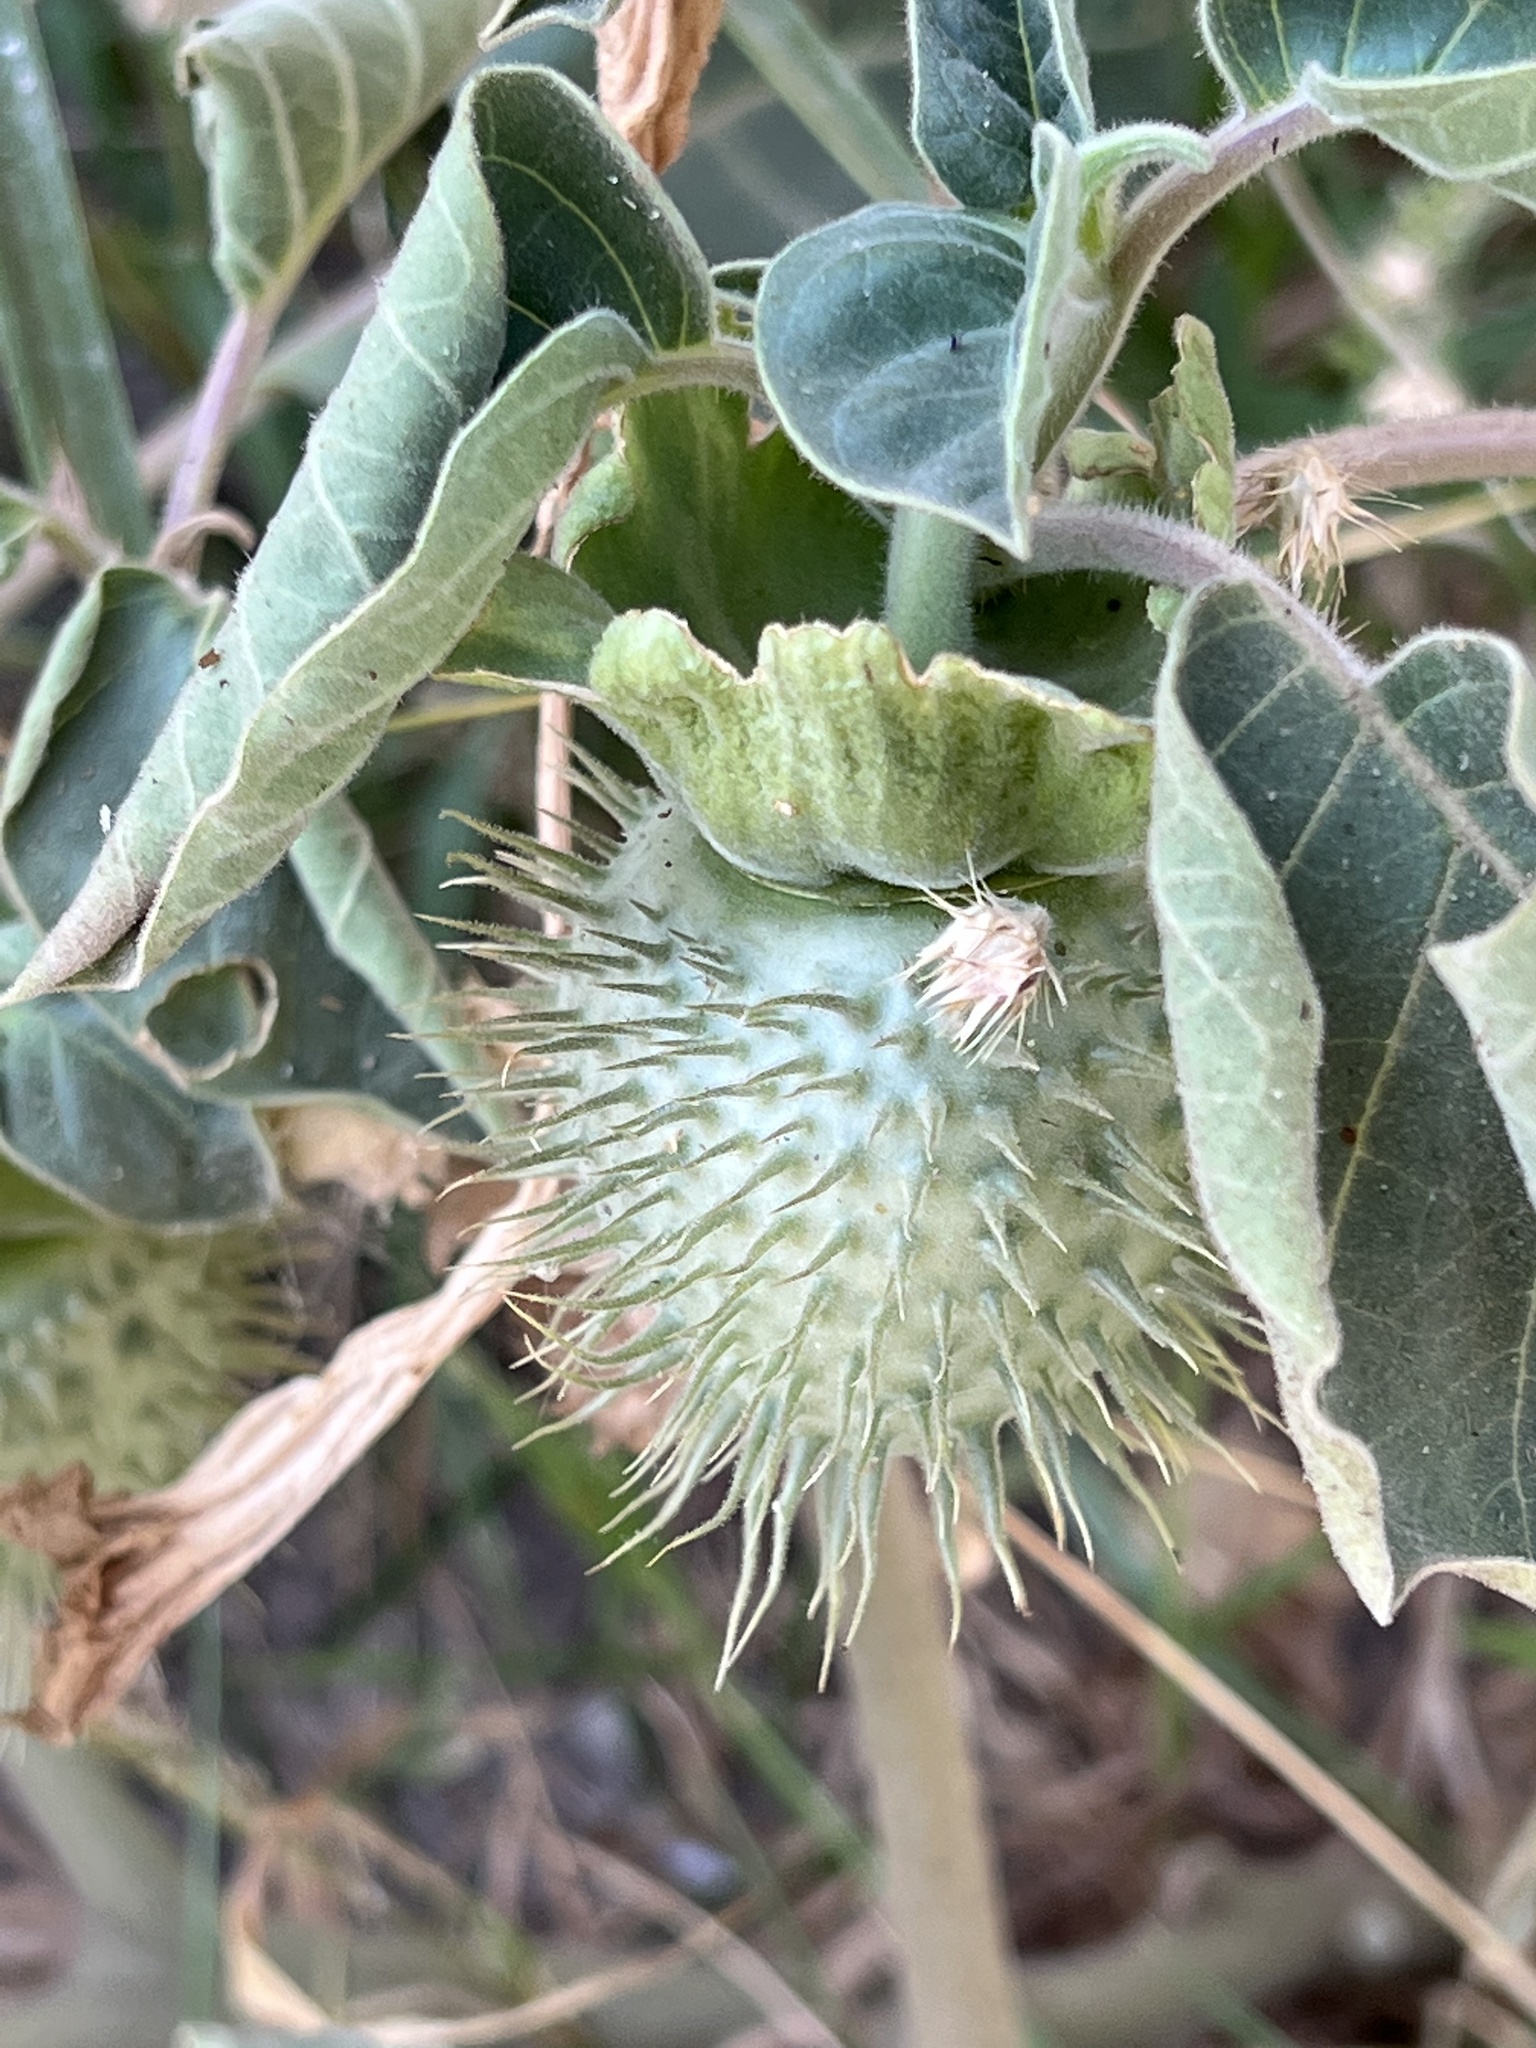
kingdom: Plantae
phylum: Tracheophyta
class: Magnoliopsida
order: Solanales
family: Solanaceae
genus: Datura
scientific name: Datura innoxia
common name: Downy thorn-apple
